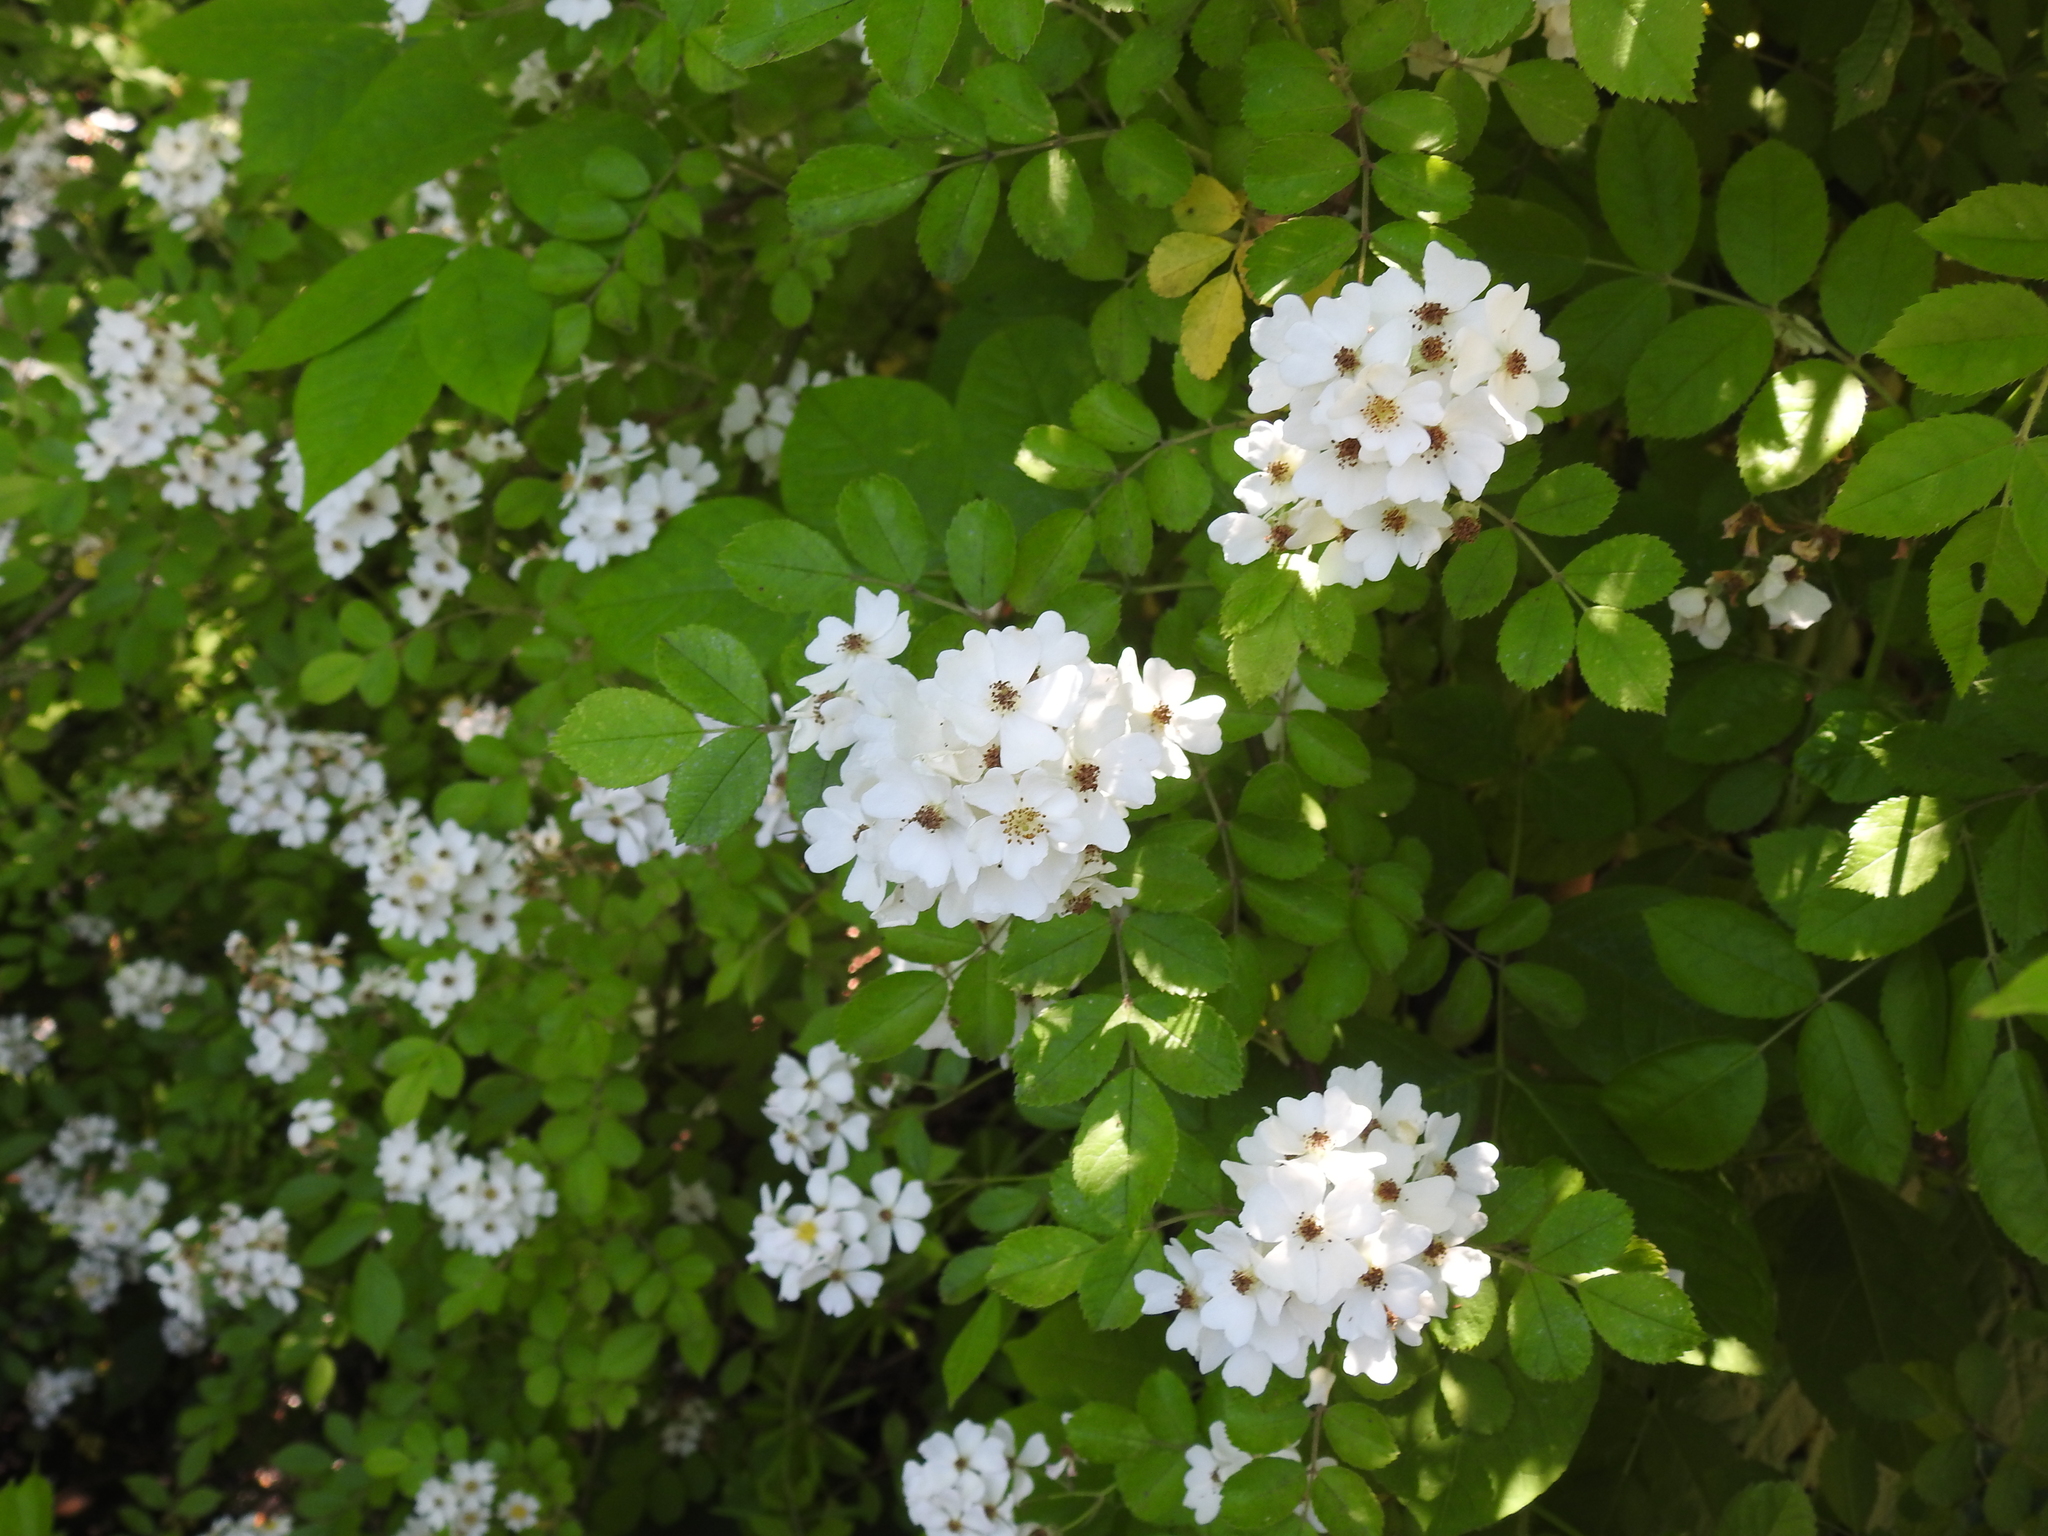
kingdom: Plantae
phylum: Tracheophyta
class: Magnoliopsida
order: Rosales
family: Rosaceae
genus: Rosa
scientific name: Rosa multiflora
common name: Multiflora rose
